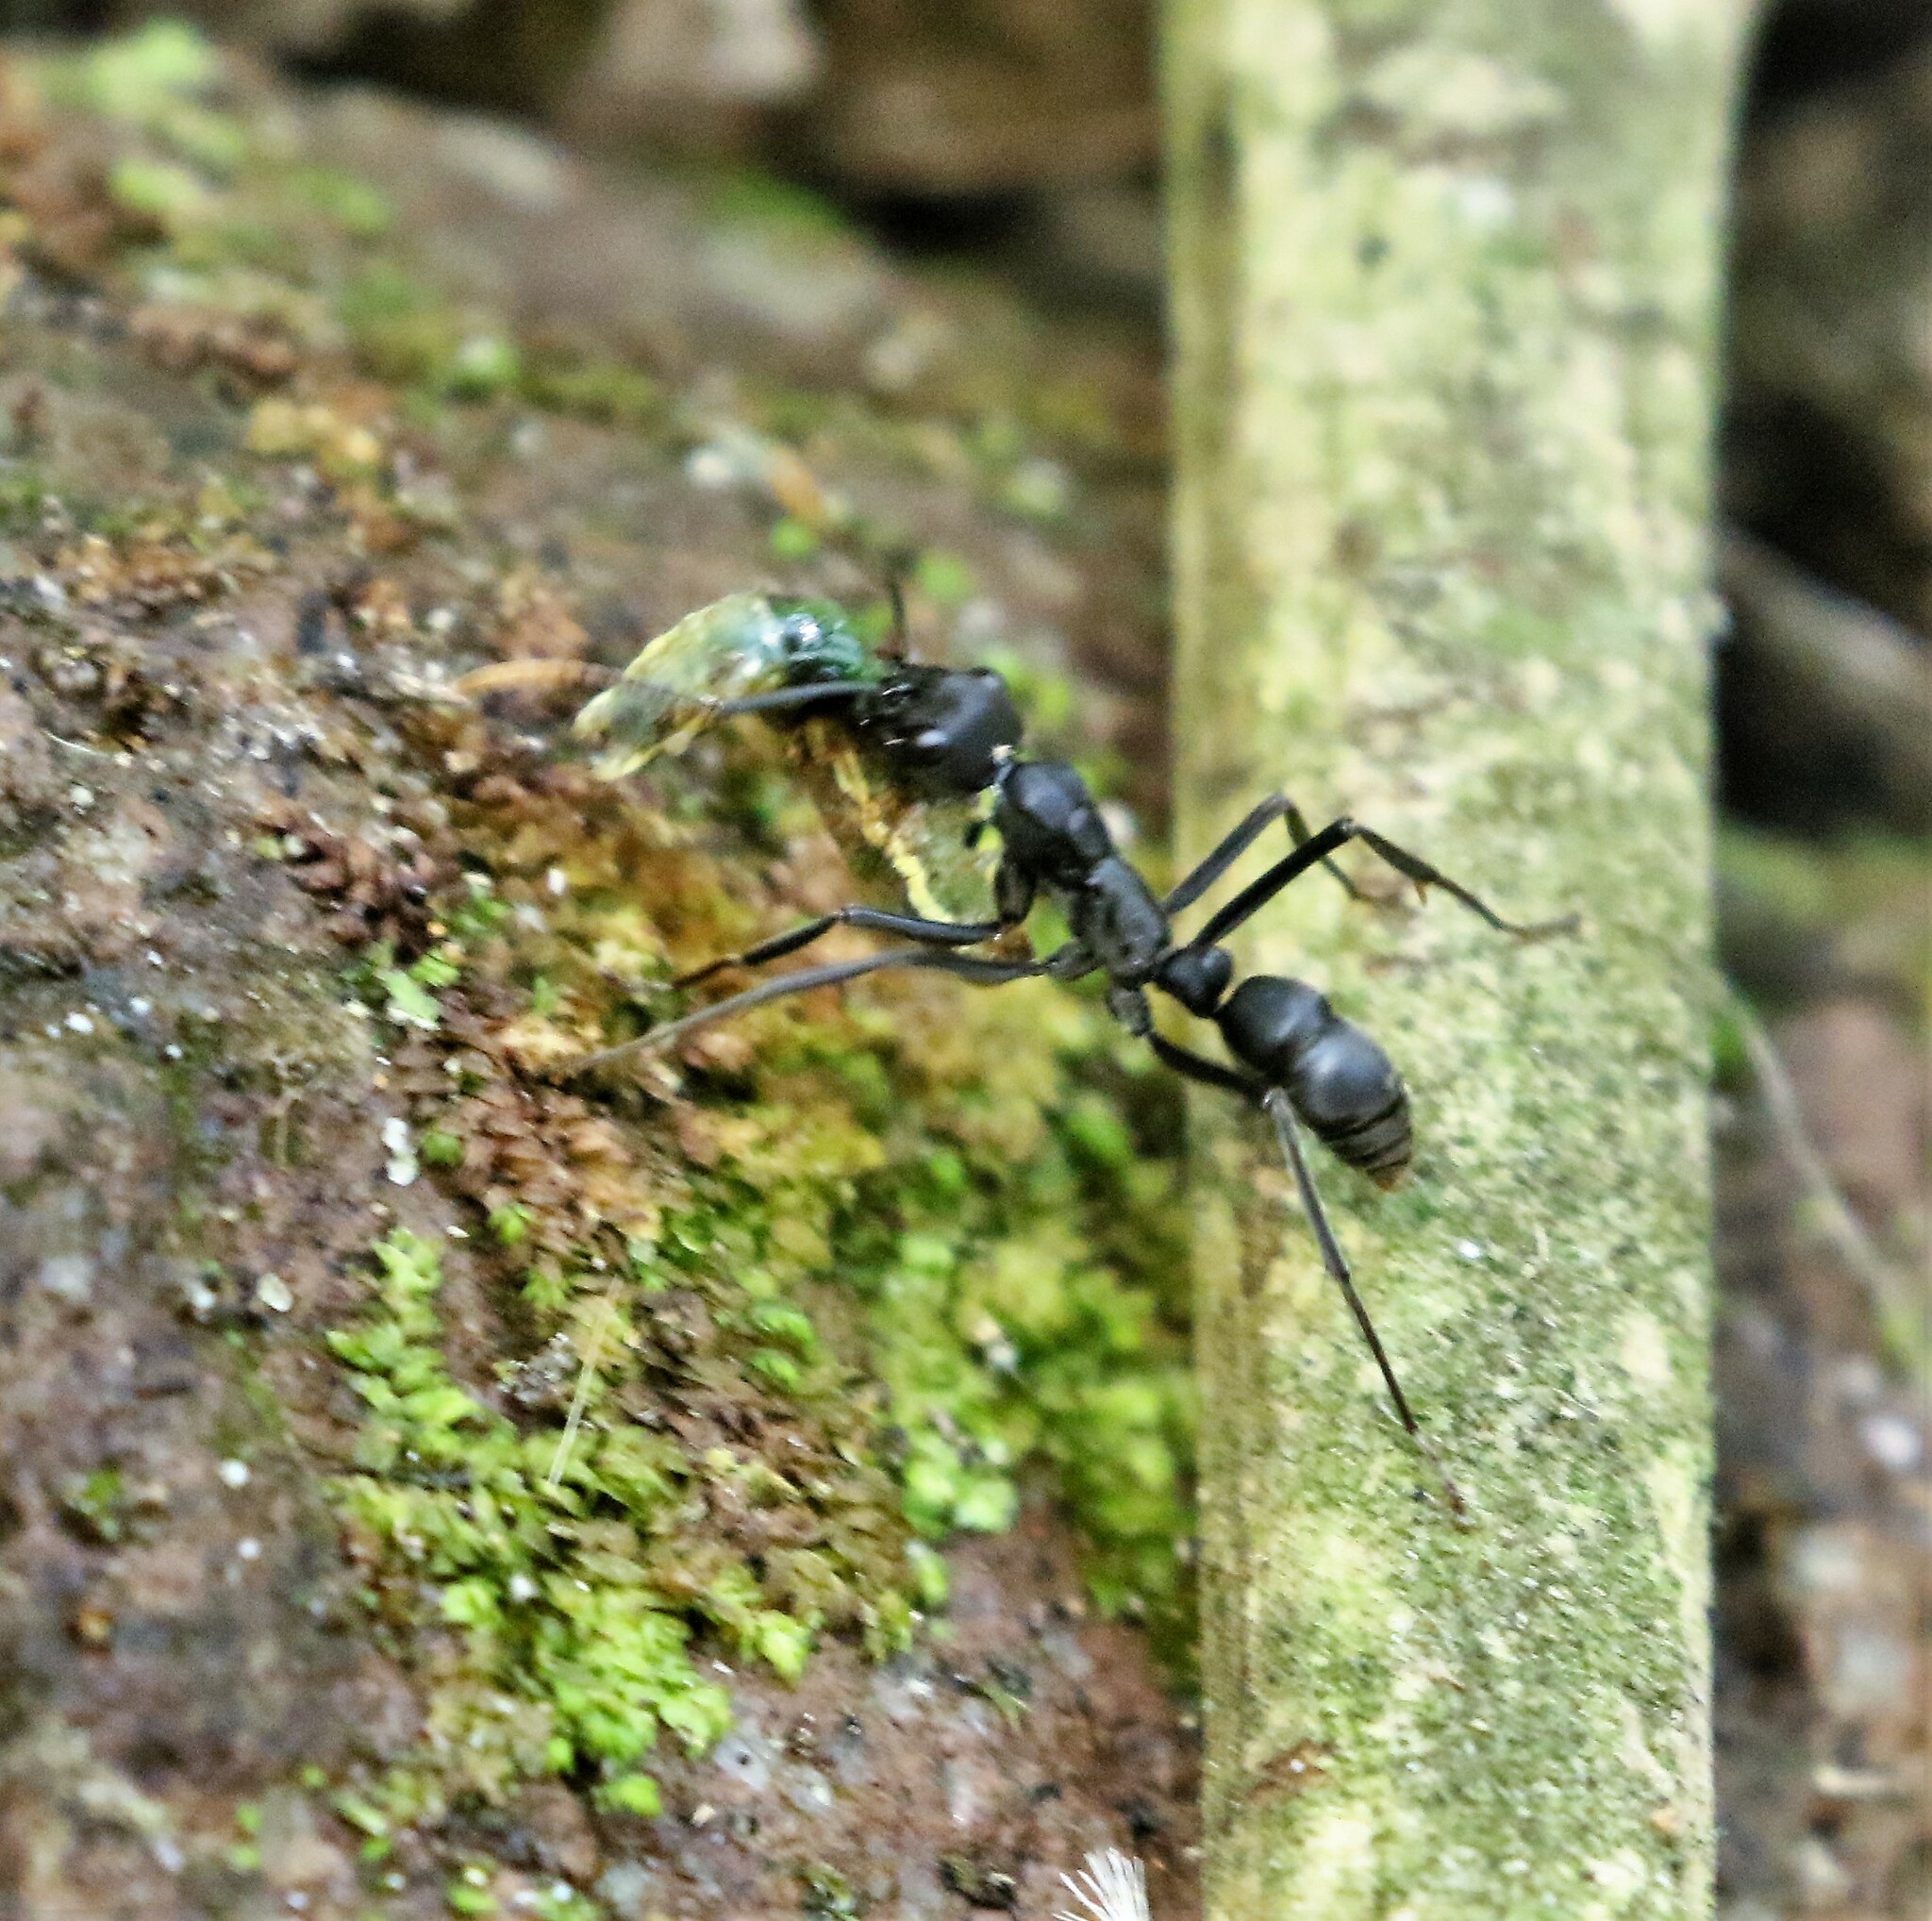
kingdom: Animalia
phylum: Arthropoda
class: Insecta
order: Hymenoptera
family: Formicidae
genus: Pachycondyla
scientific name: Pachycondyla apicalis
